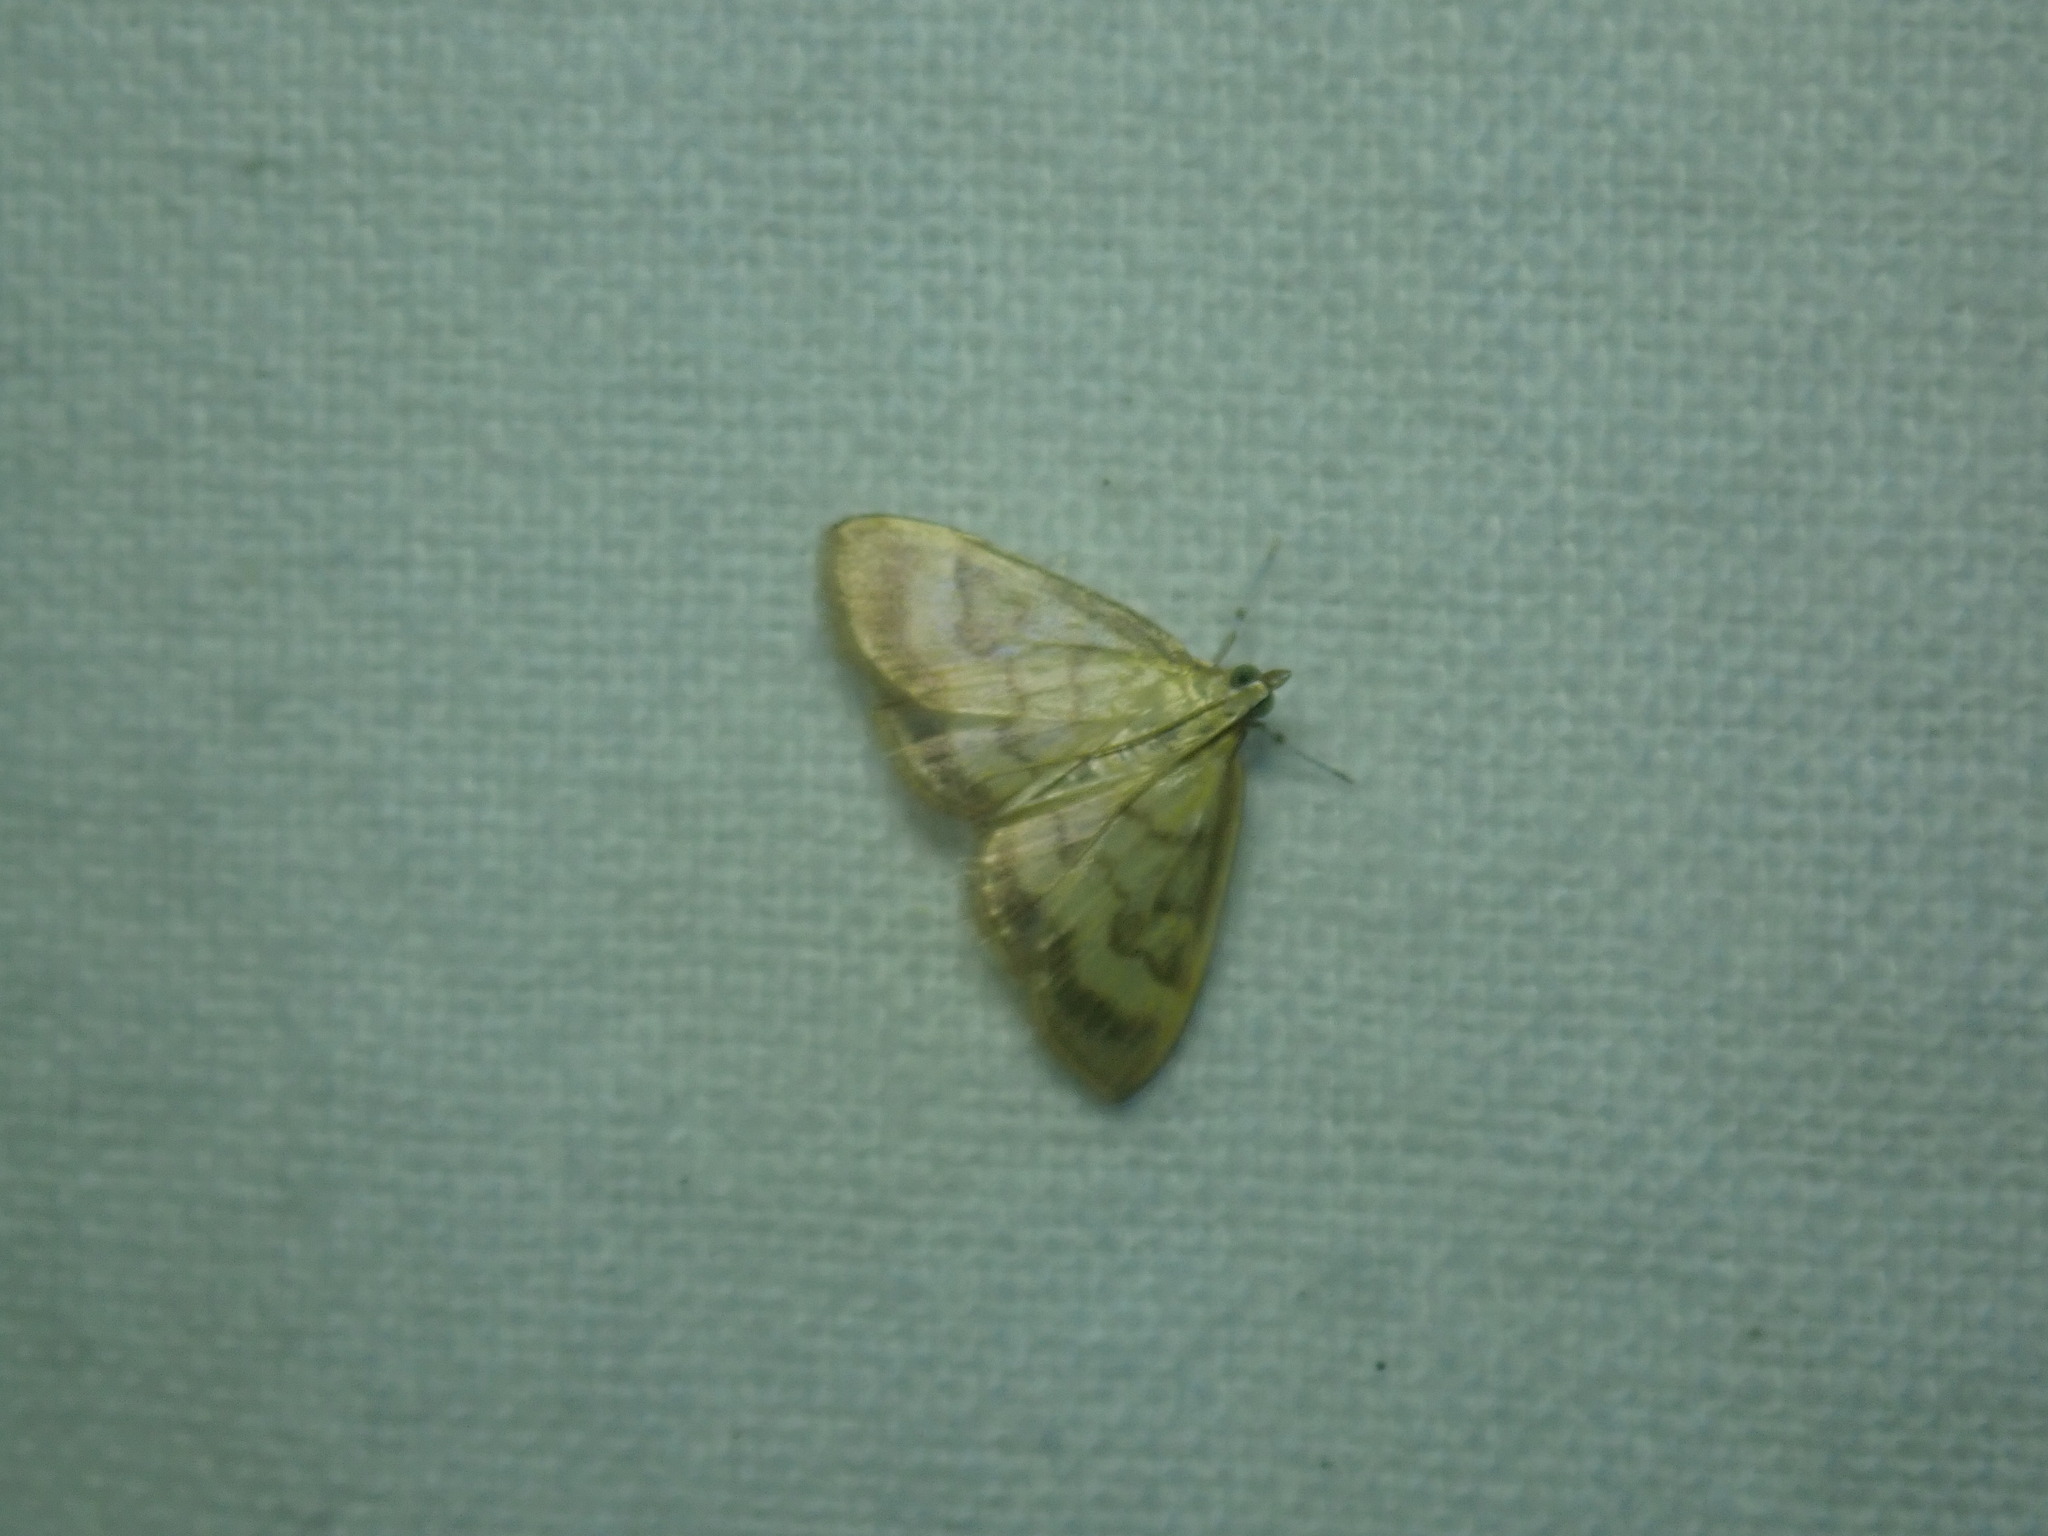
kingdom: Animalia
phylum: Arthropoda
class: Insecta
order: Lepidoptera
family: Crambidae
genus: Crocidophora
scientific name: Crocidophora tuberculalis
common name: Pale-winged crocidiphora moth
